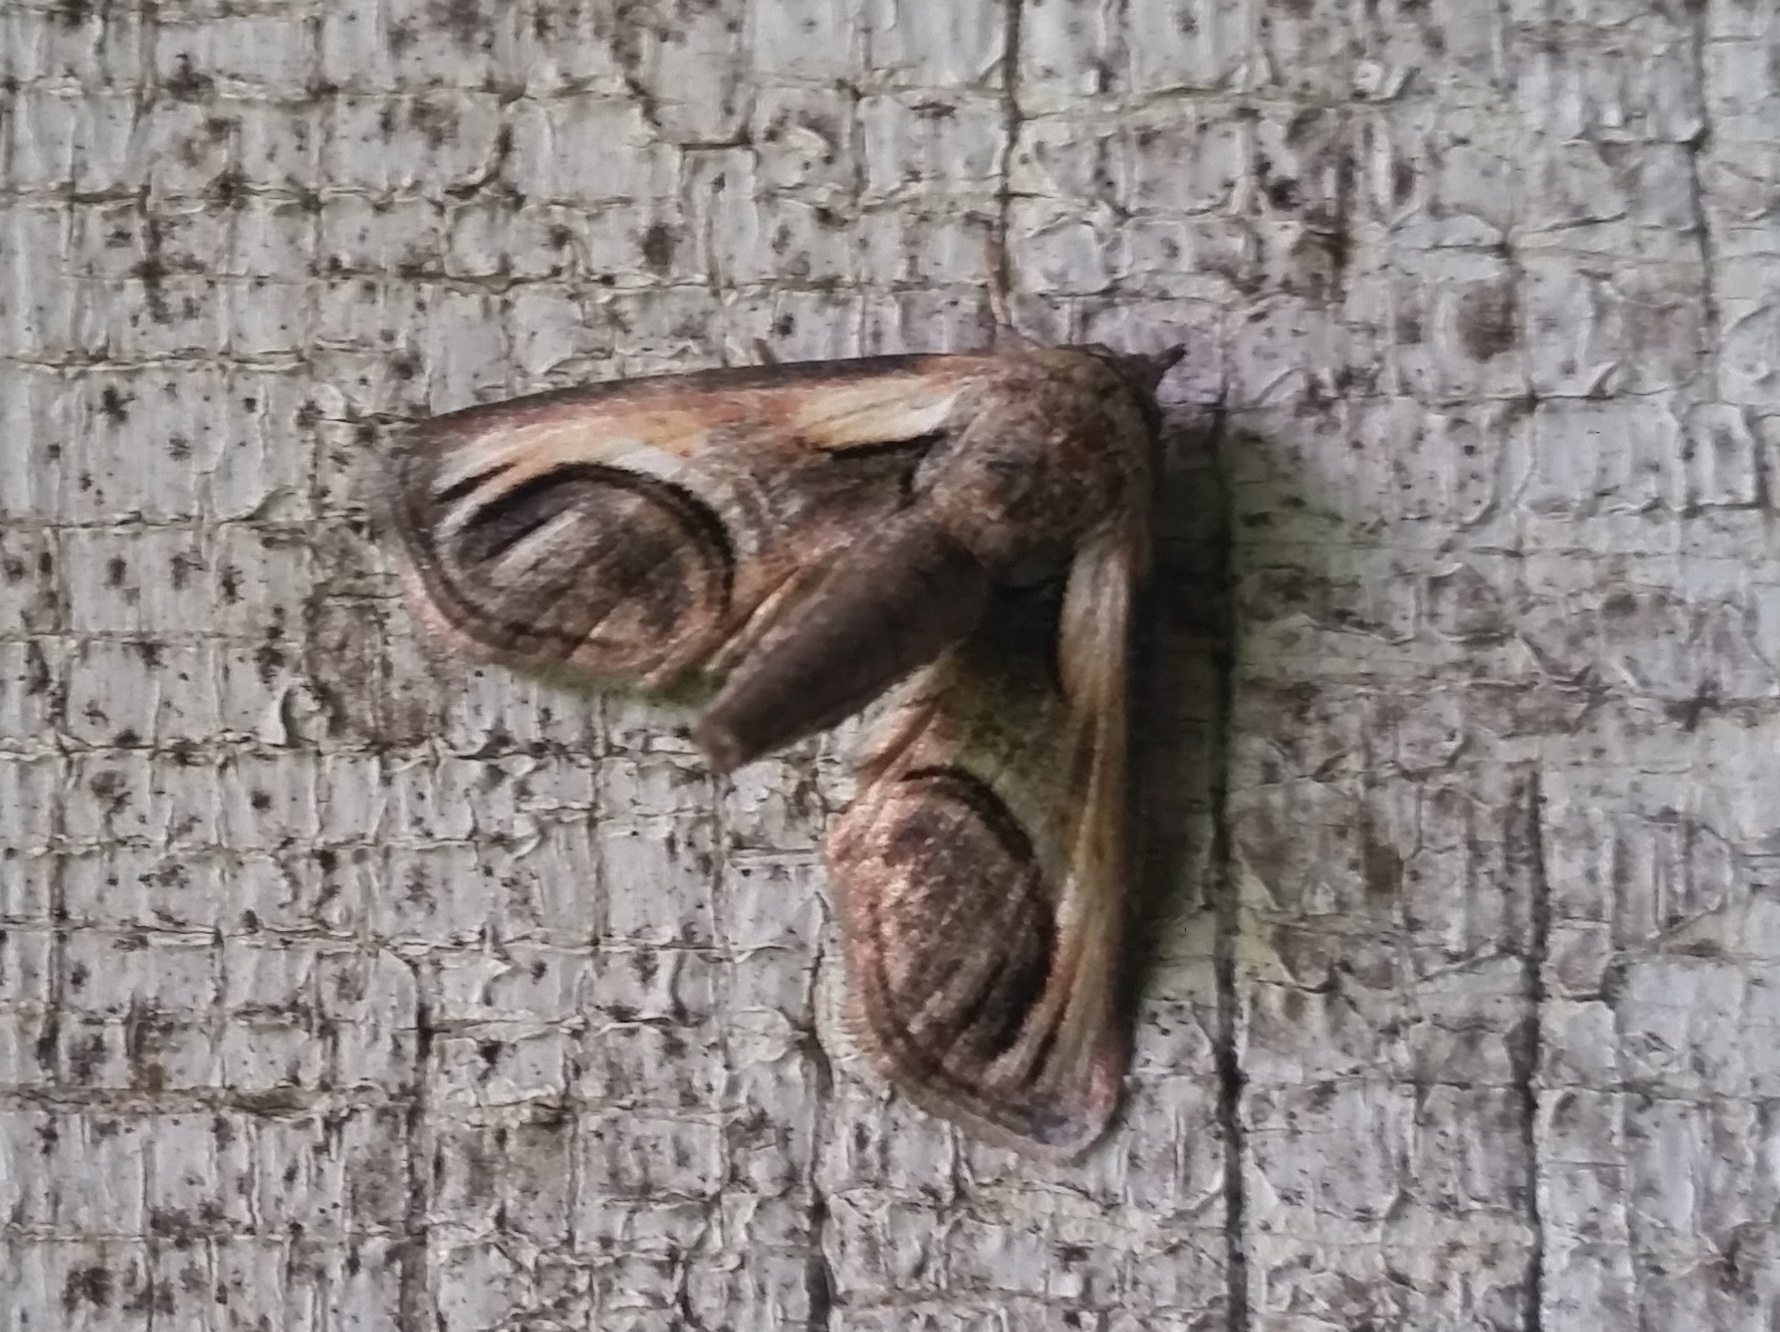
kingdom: Animalia
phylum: Arthropoda
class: Insecta
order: Lepidoptera
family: Euteliidae
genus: Paectes
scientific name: Paectes oculatrix
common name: Eyed paectes moth
